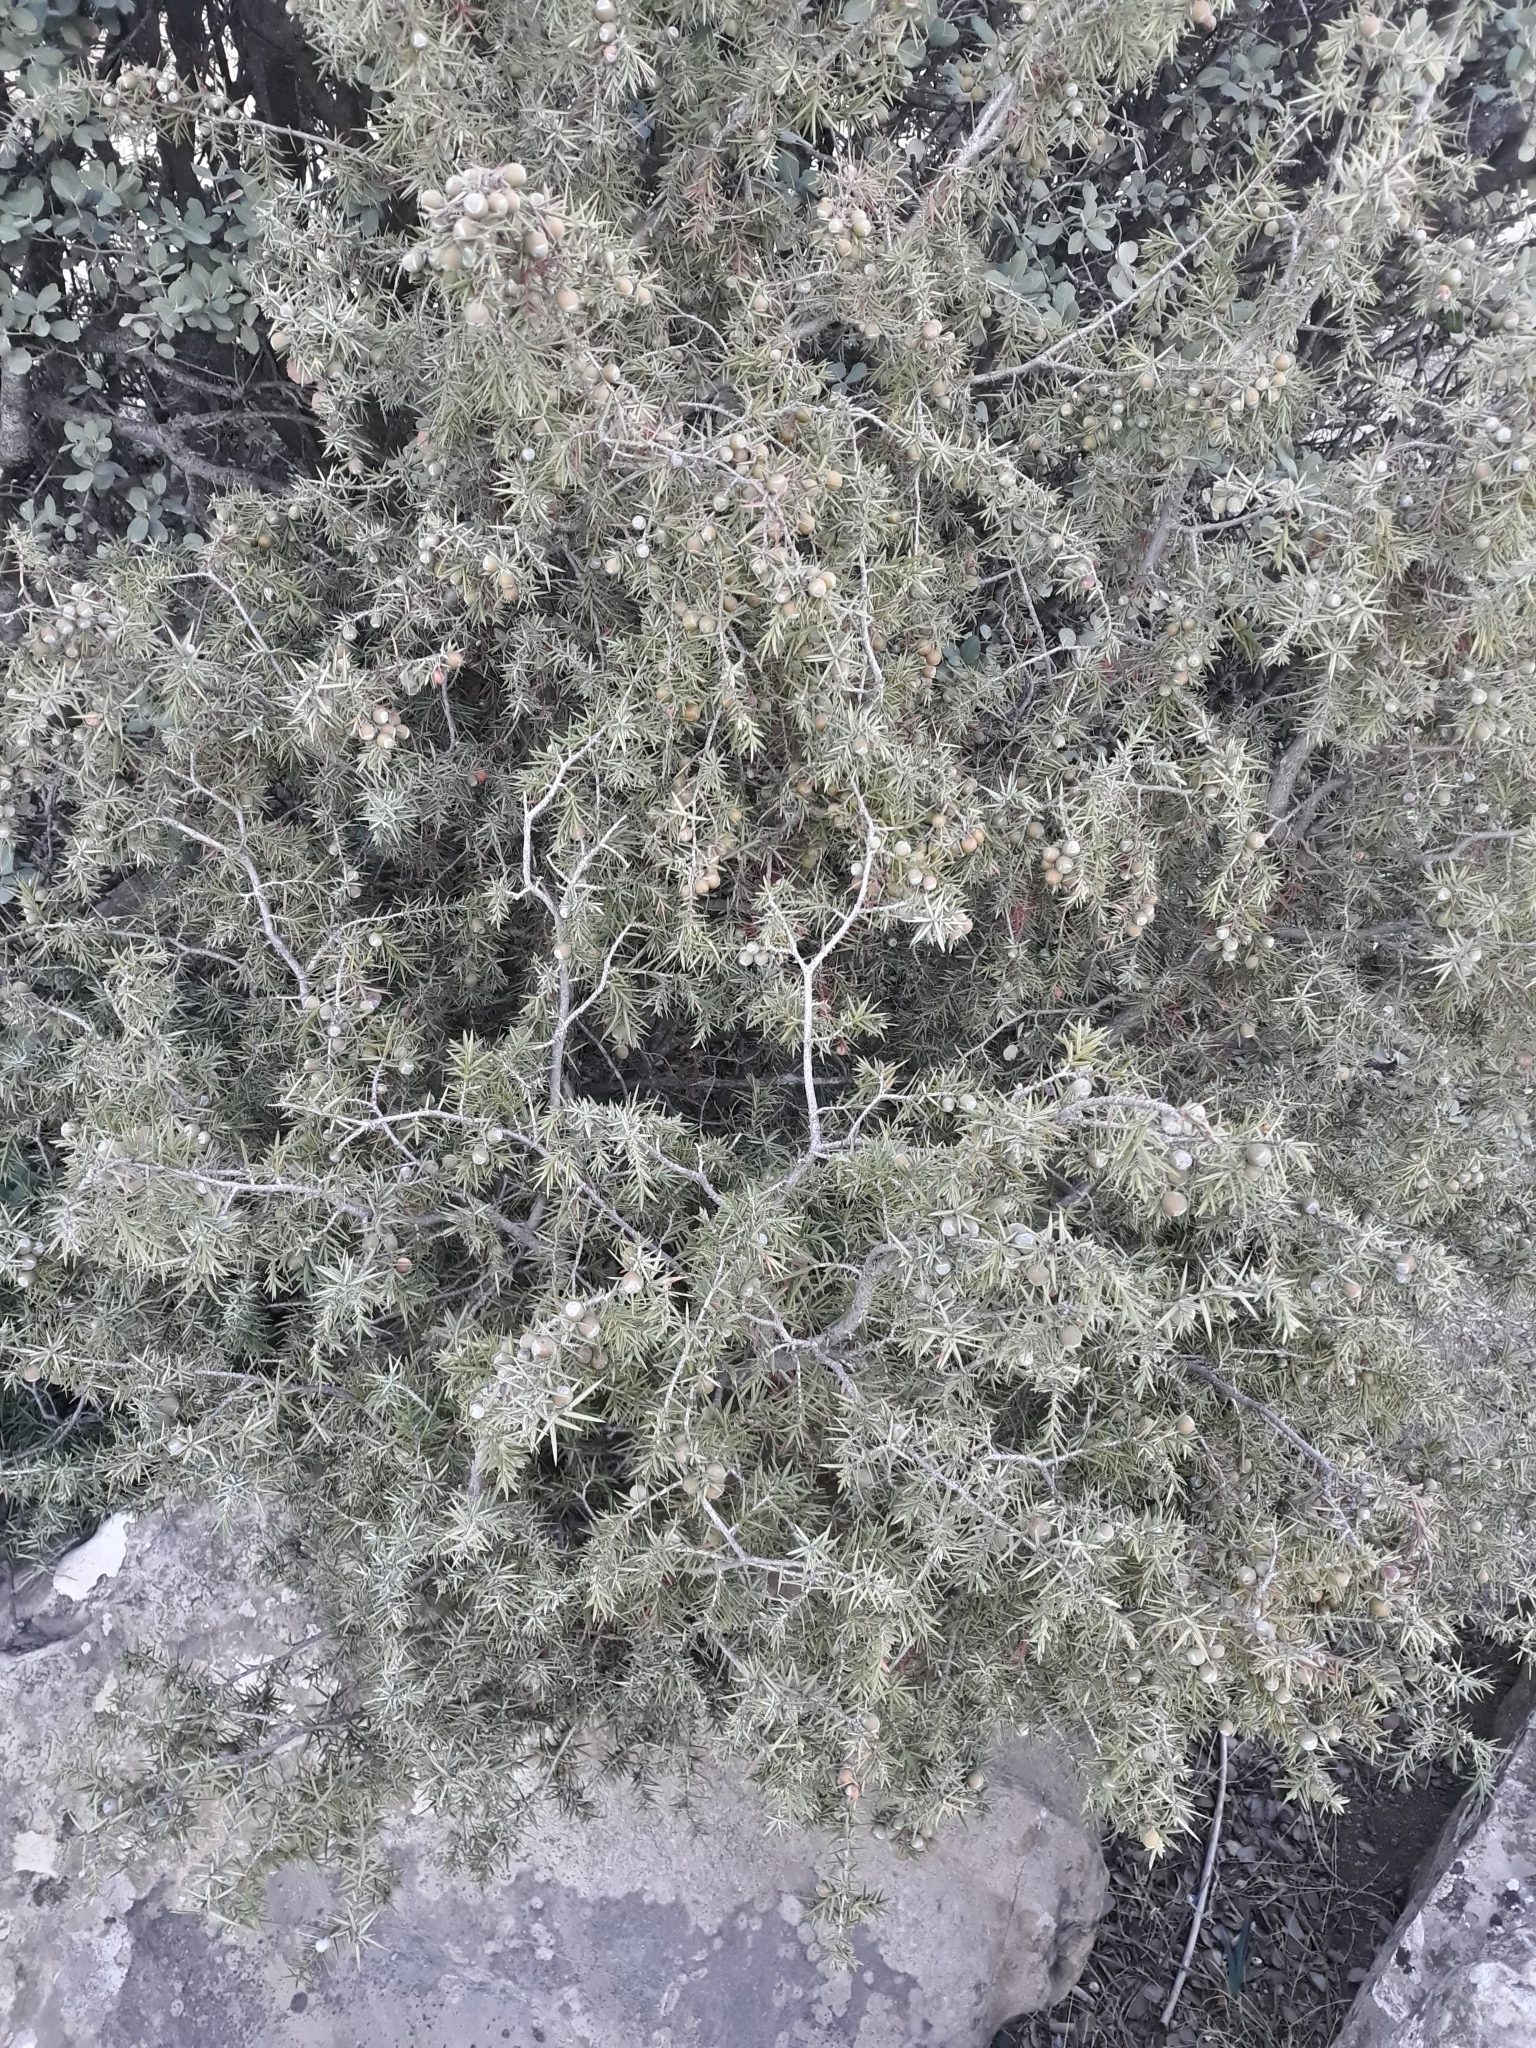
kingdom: Plantae
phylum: Tracheophyta
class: Pinopsida
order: Pinales
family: Cupressaceae
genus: Juniperus
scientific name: Juniperus oxycedrus
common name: Prickly juniper
